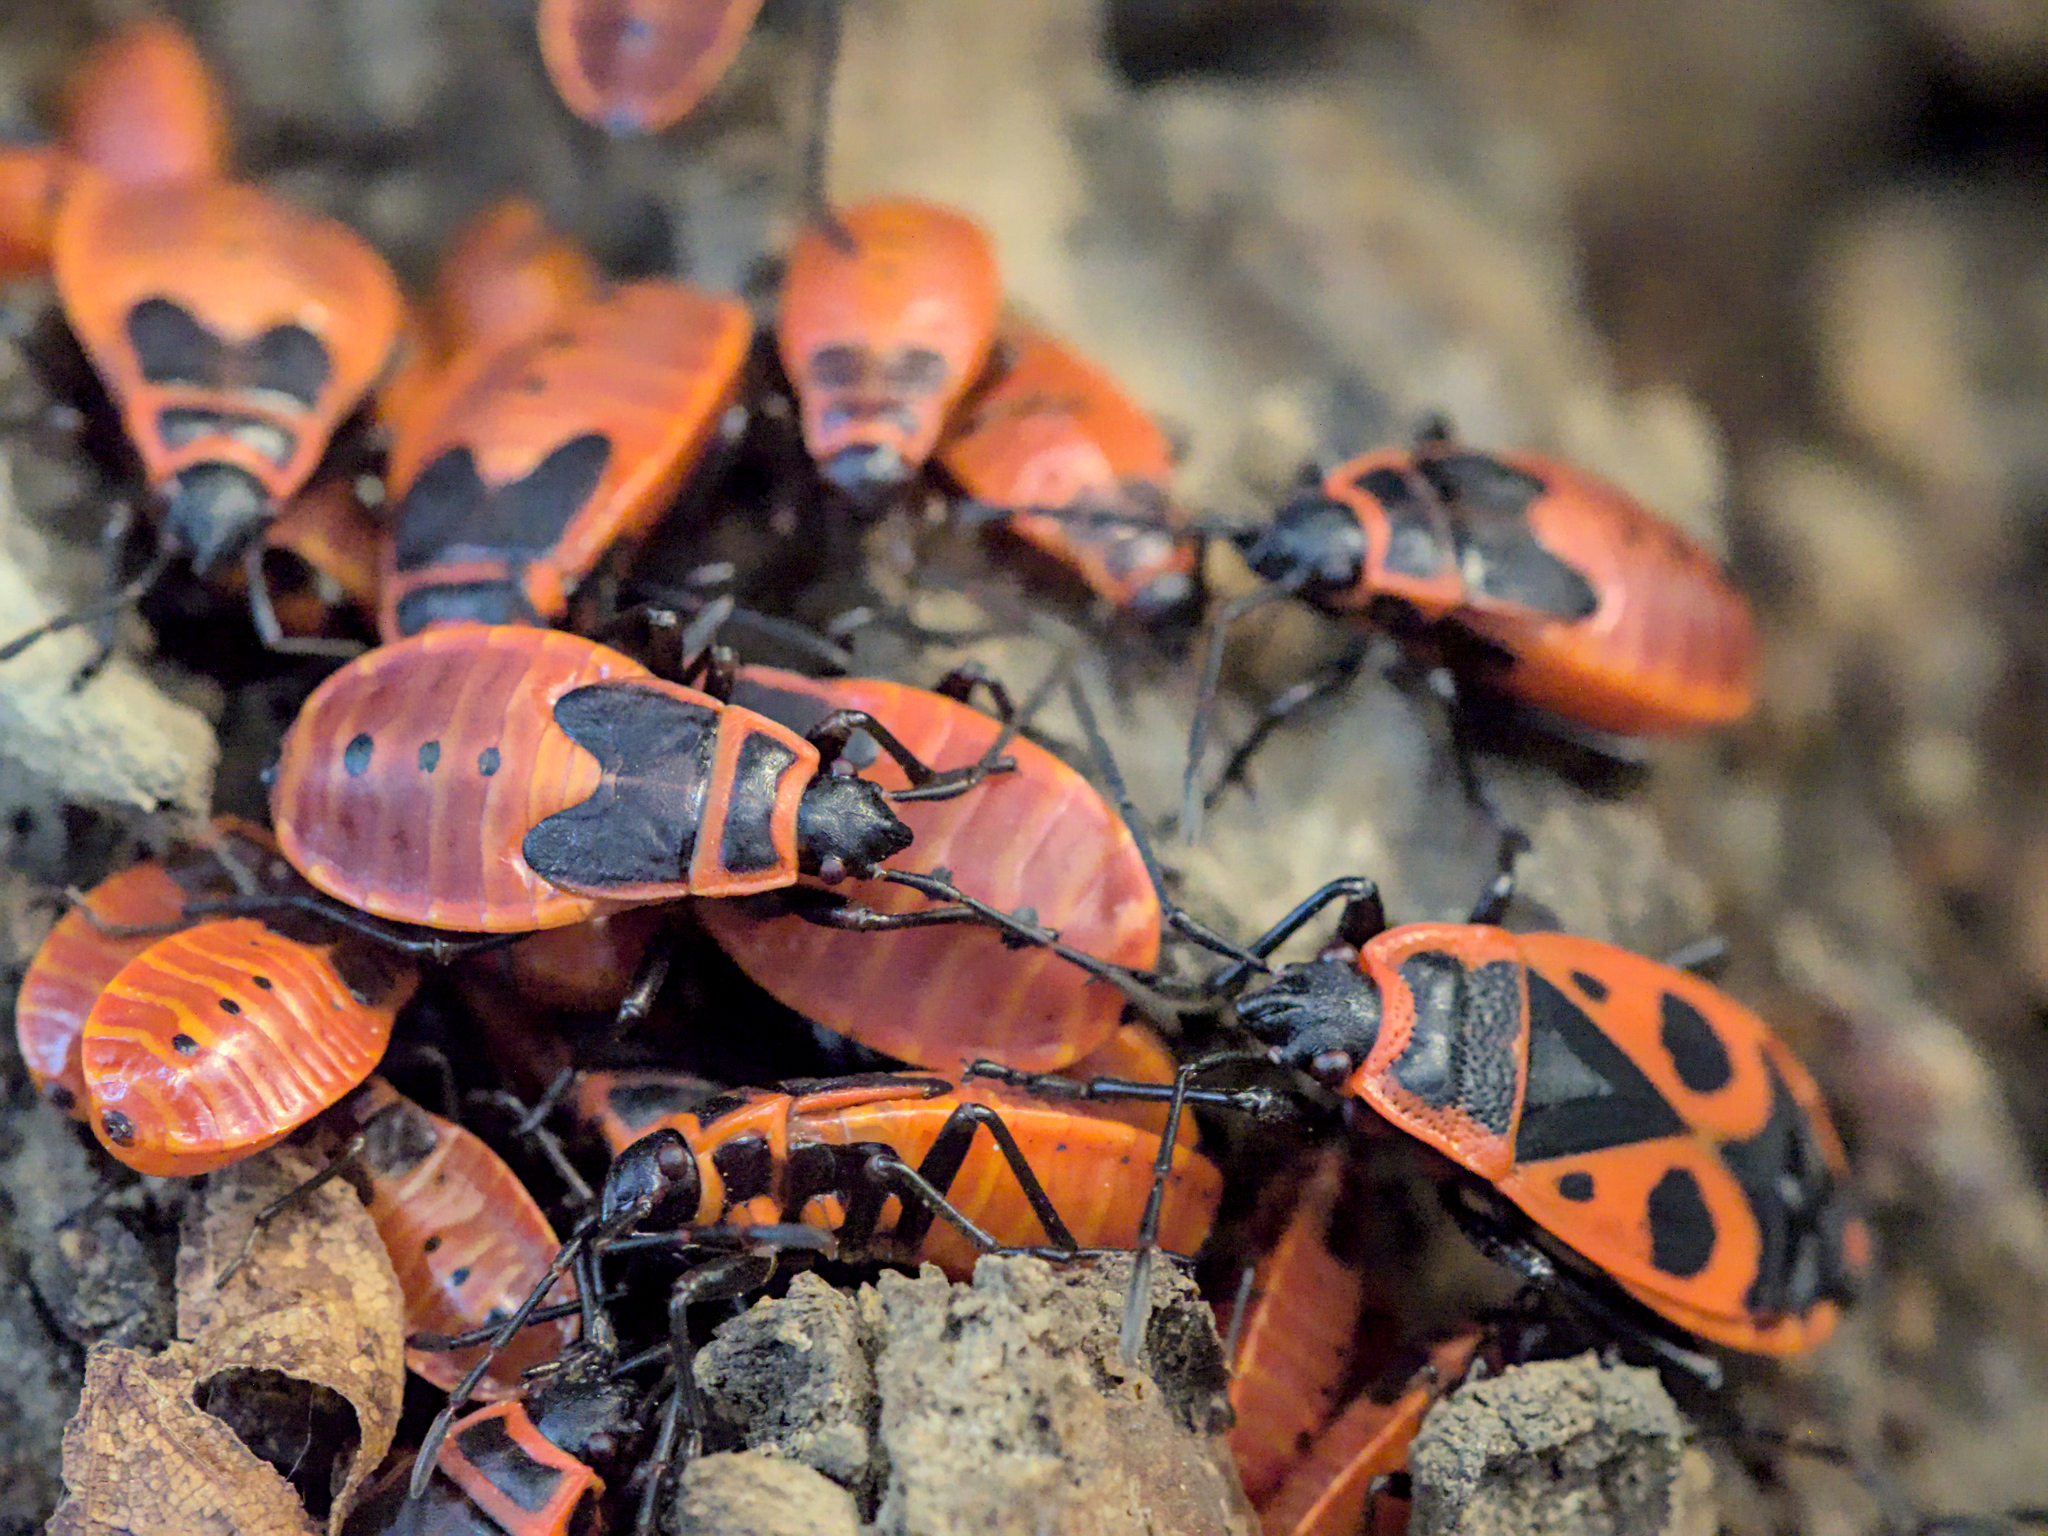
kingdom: Animalia
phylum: Arthropoda
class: Insecta
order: Hemiptera
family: Pyrrhocoridae
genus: Pyrrhocoris
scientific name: Pyrrhocoris apterus
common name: Firebug
